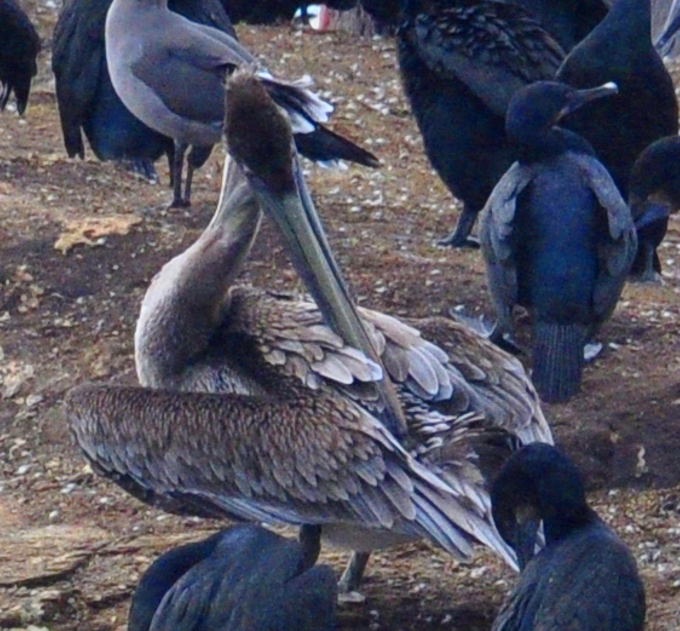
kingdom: Animalia
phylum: Chordata
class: Aves
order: Pelecaniformes
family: Pelecanidae
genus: Pelecanus
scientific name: Pelecanus occidentalis
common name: Brown pelican
